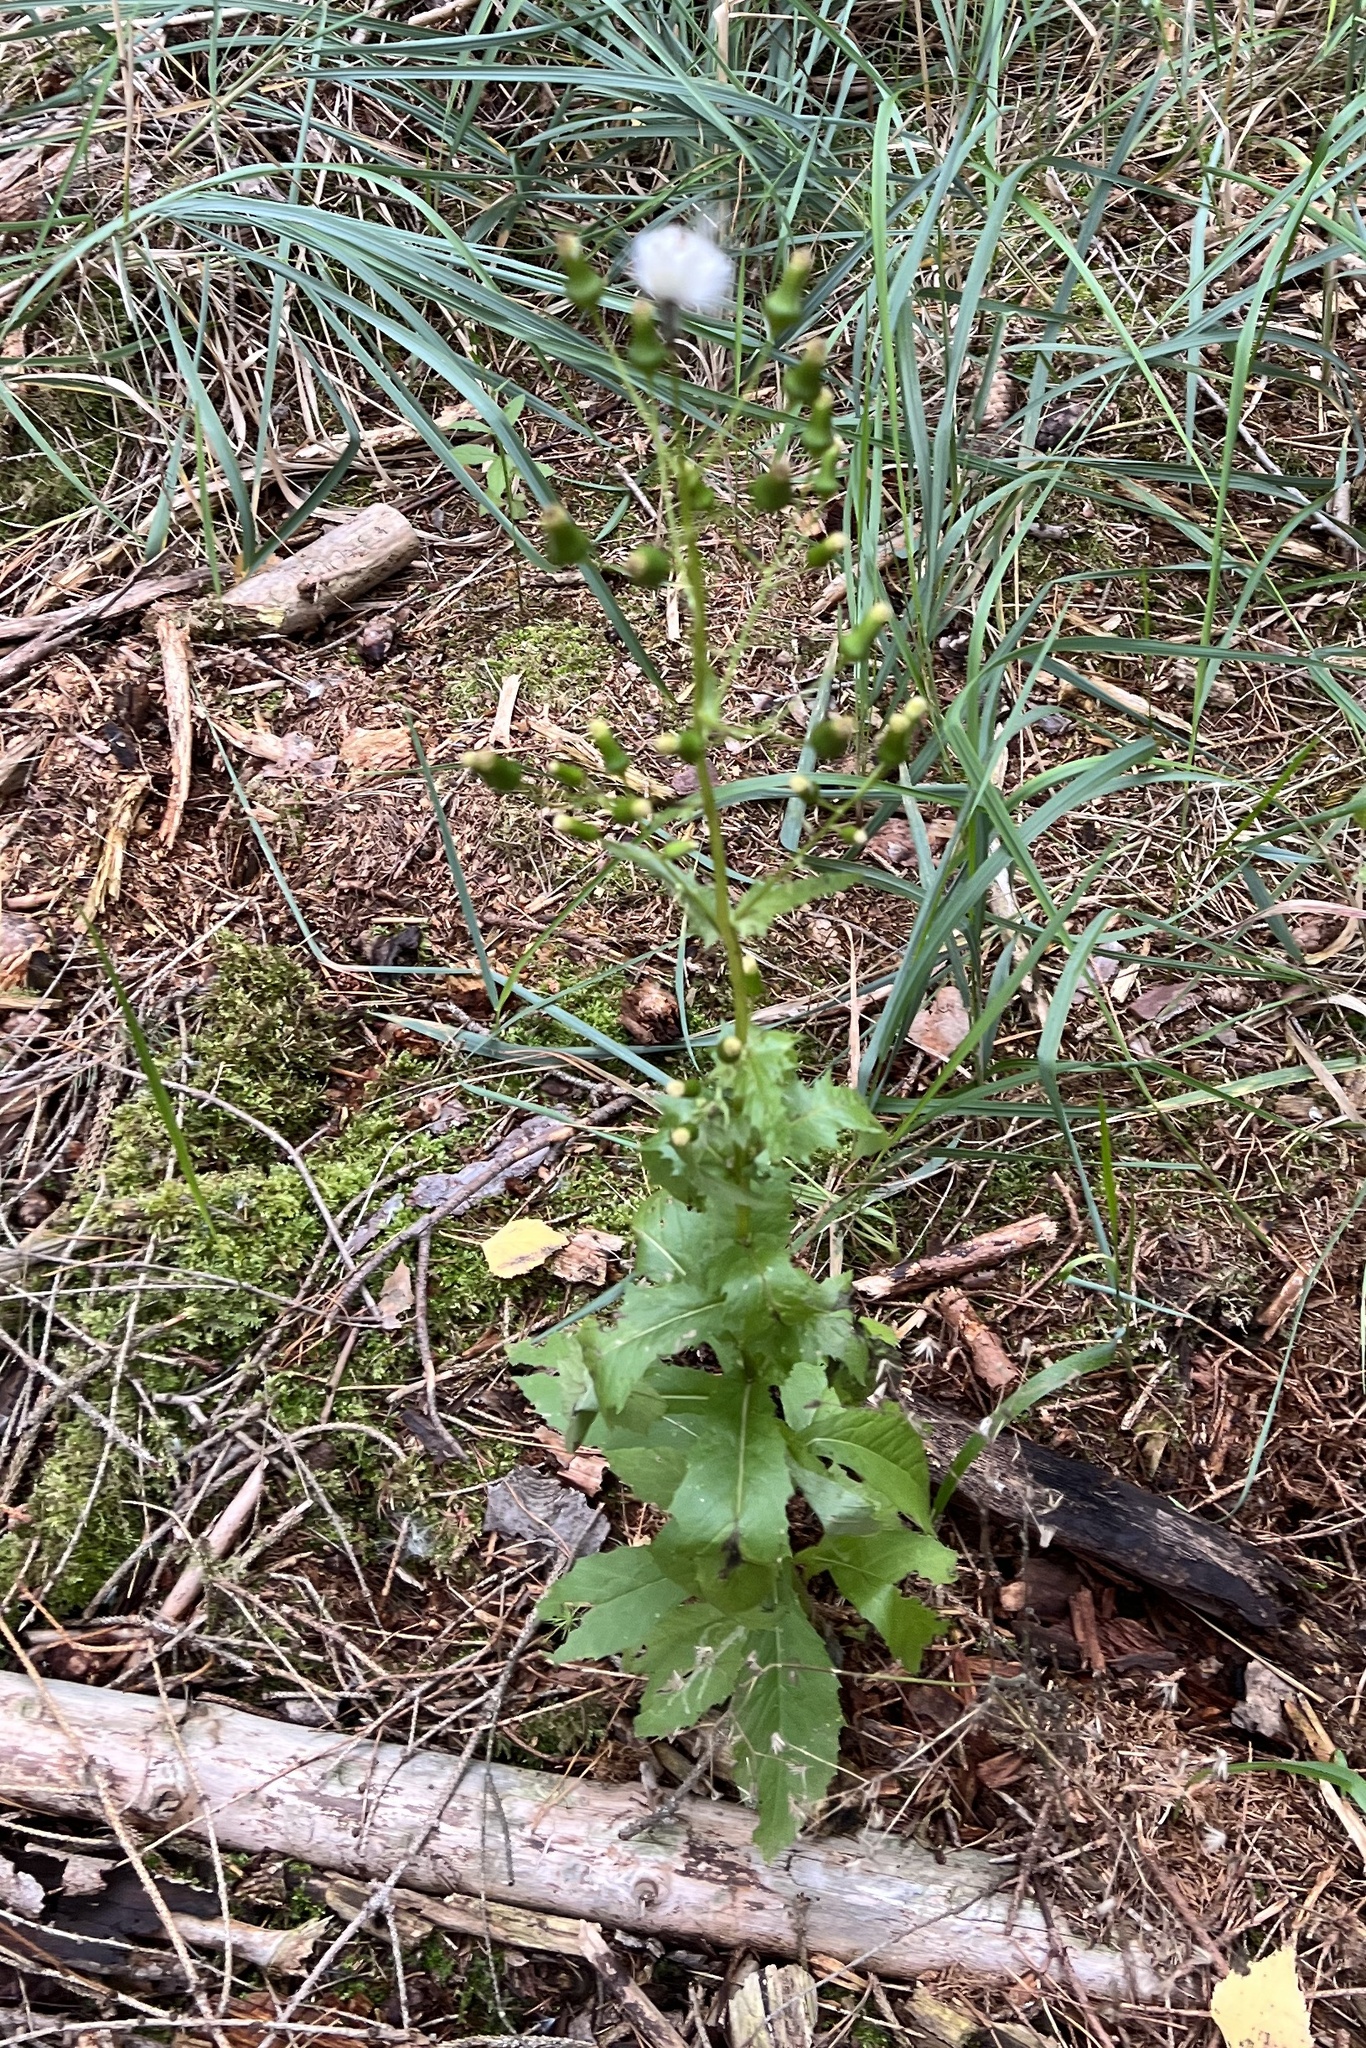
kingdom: Plantae
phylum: Tracheophyta
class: Magnoliopsida
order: Asterales
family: Asteraceae
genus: Erechtites
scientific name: Erechtites hieraciifolius
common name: American burnweed
